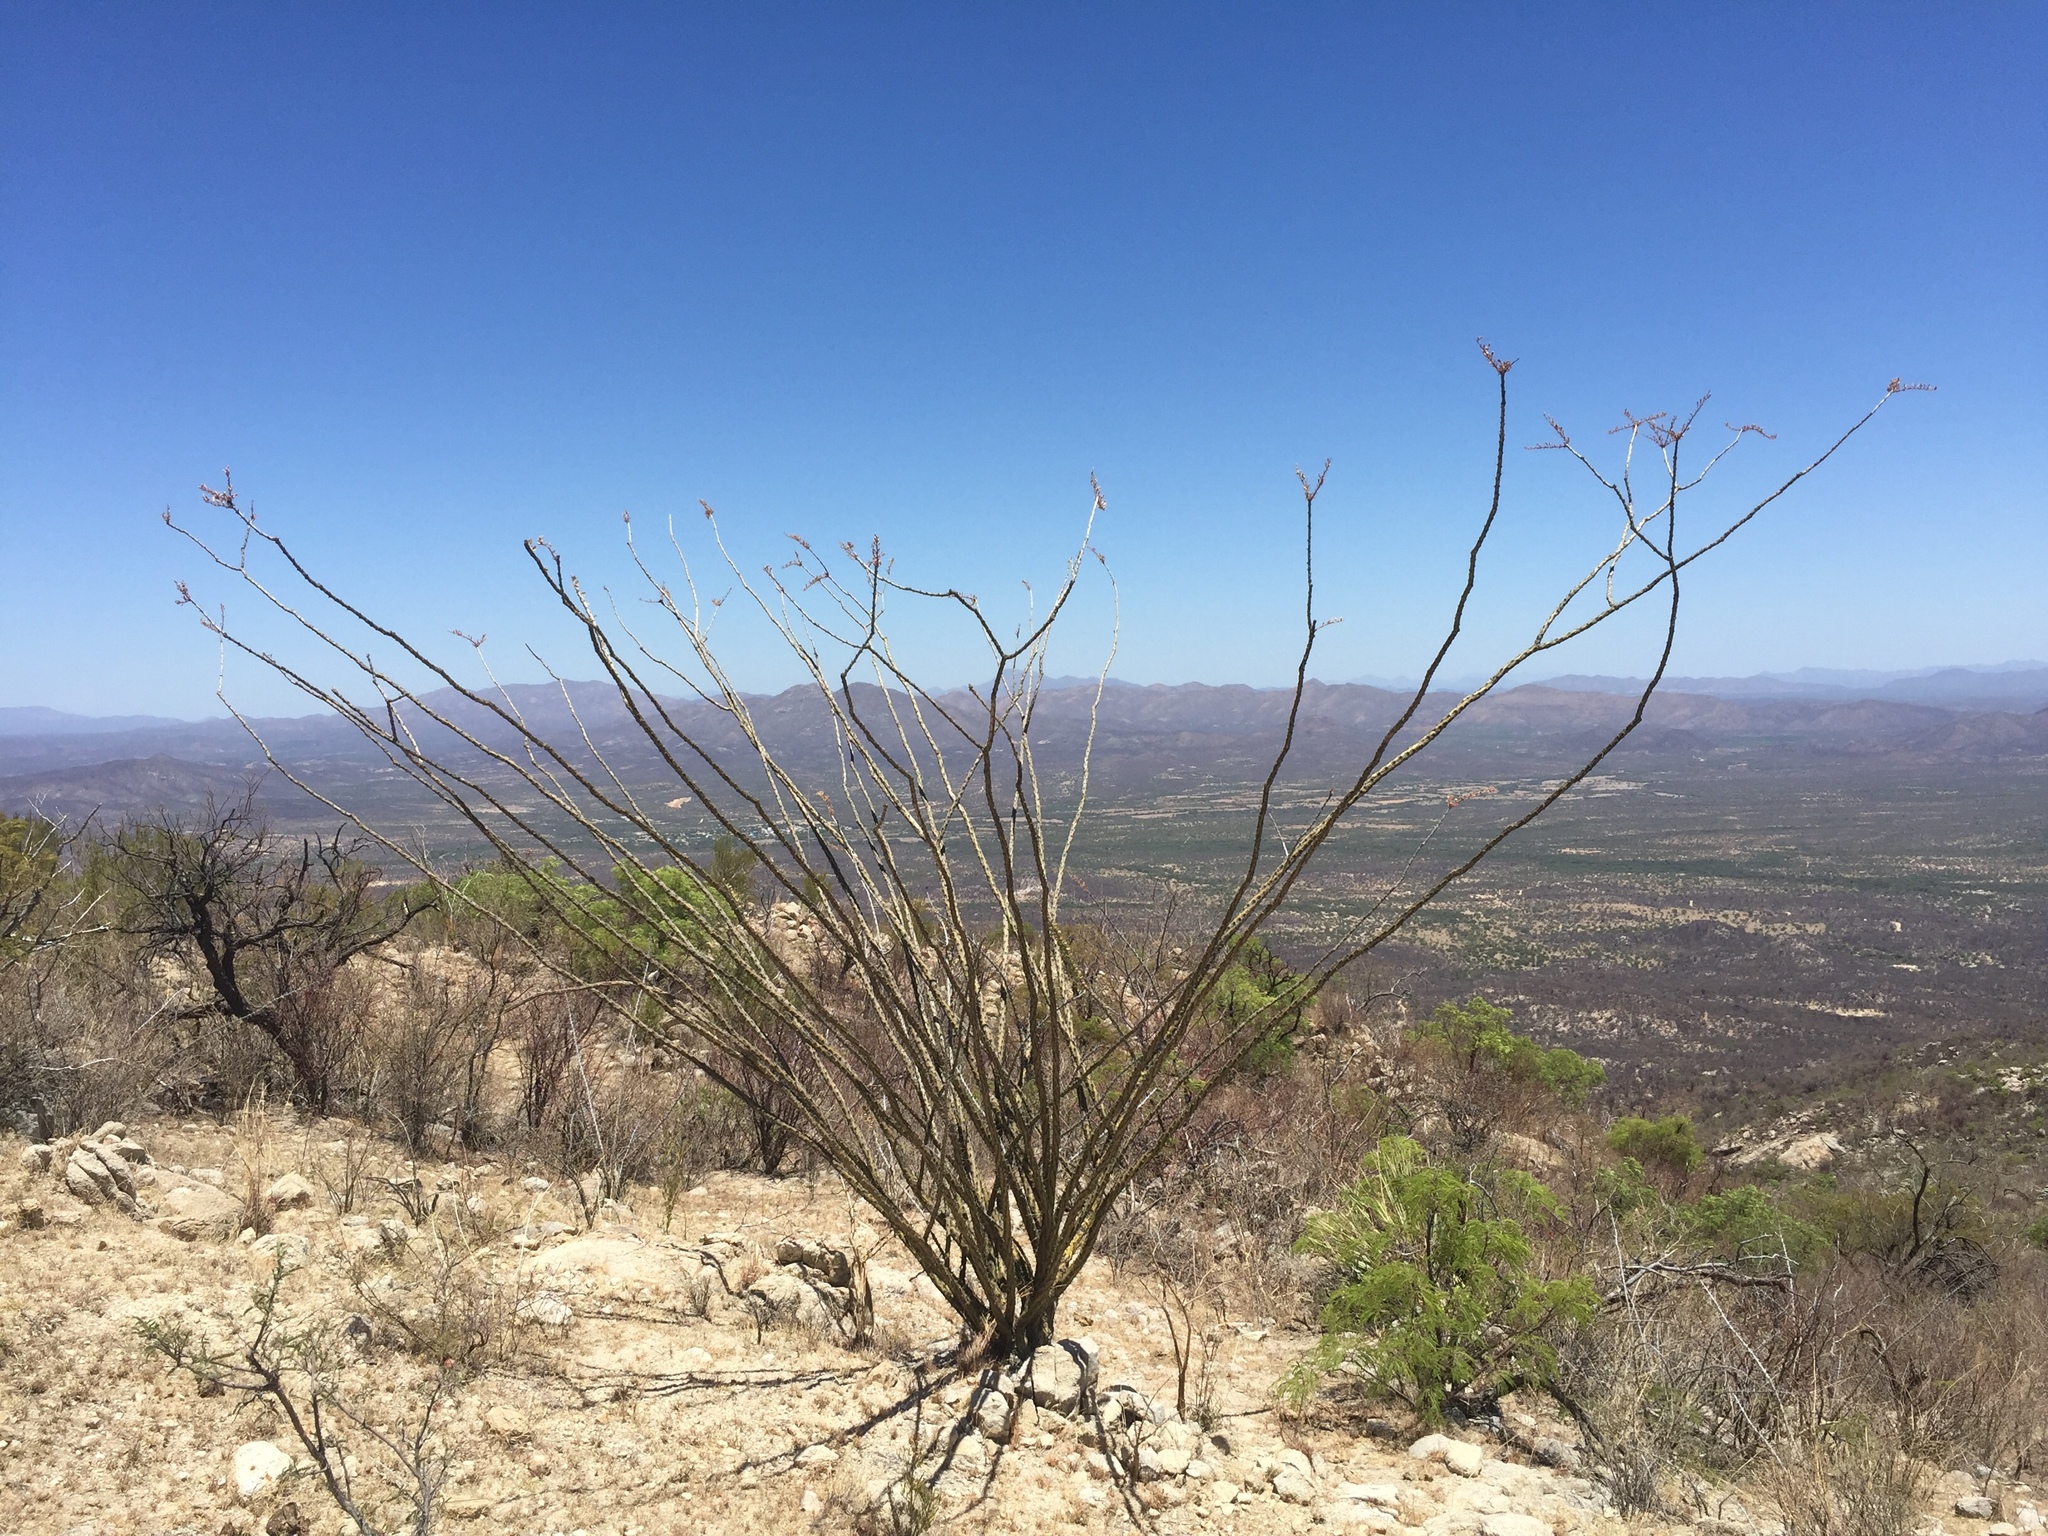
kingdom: Plantae
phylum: Tracheophyta
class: Magnoliopsida
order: Ericales
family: Fouquieriaceae
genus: Fouquieria
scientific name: Fouquieria splendens
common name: Vine-cactus
